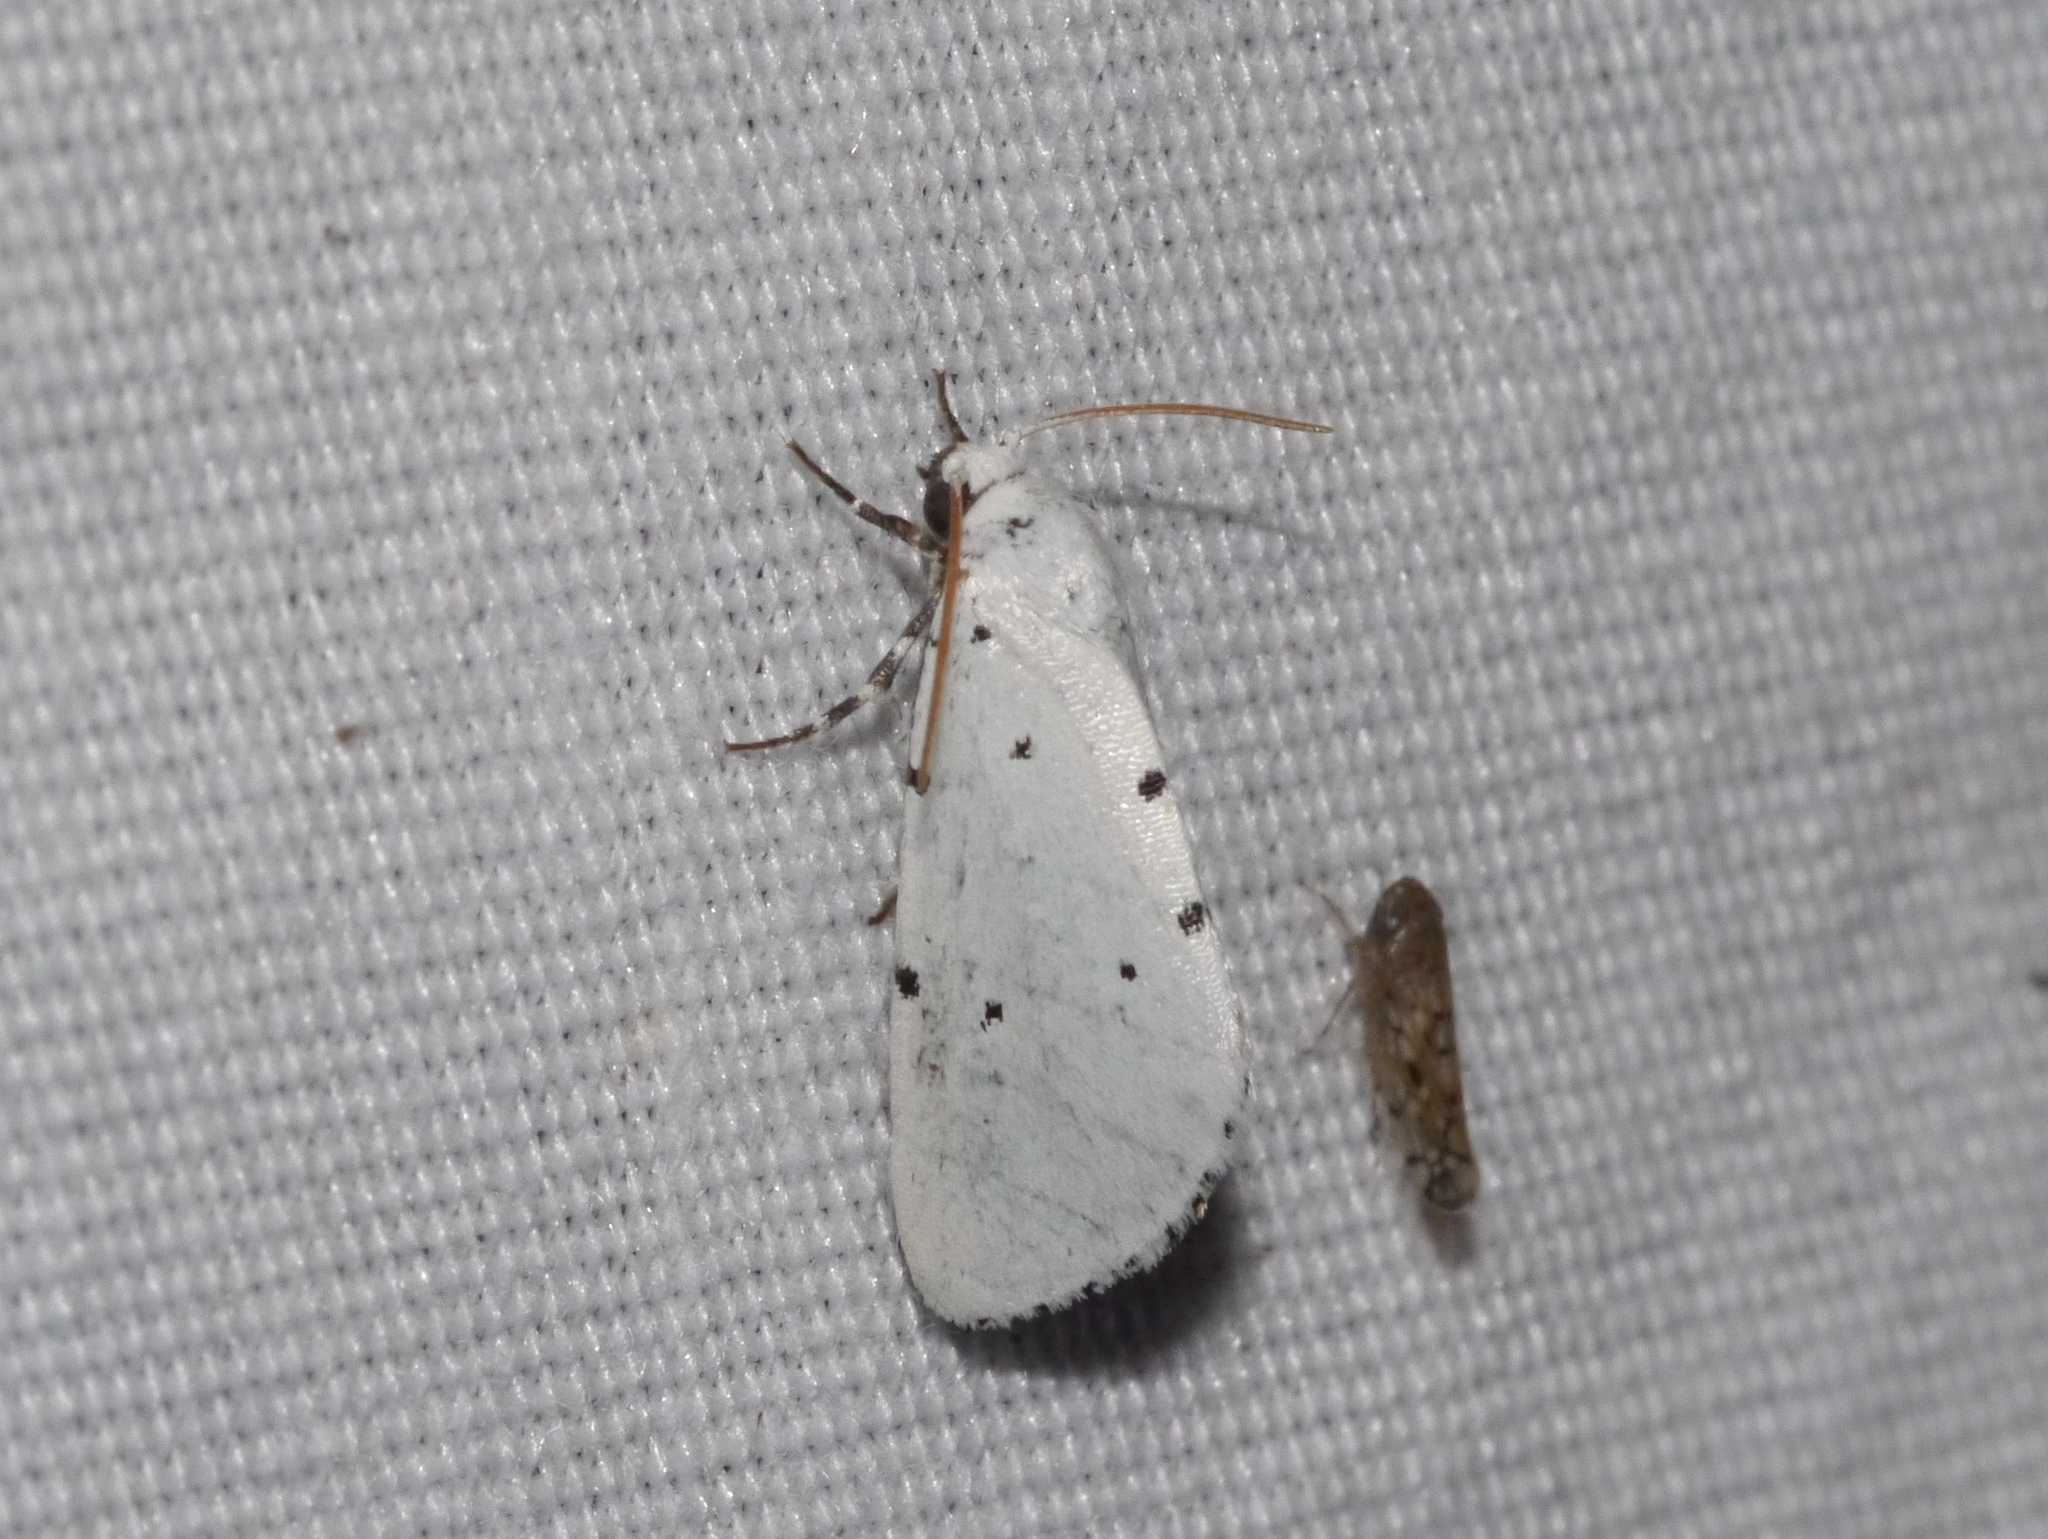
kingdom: Animalia
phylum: Arthropoda
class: Insecta
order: Lepidoptera
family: Noctuidae
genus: Grotella
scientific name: Grotella sampita
